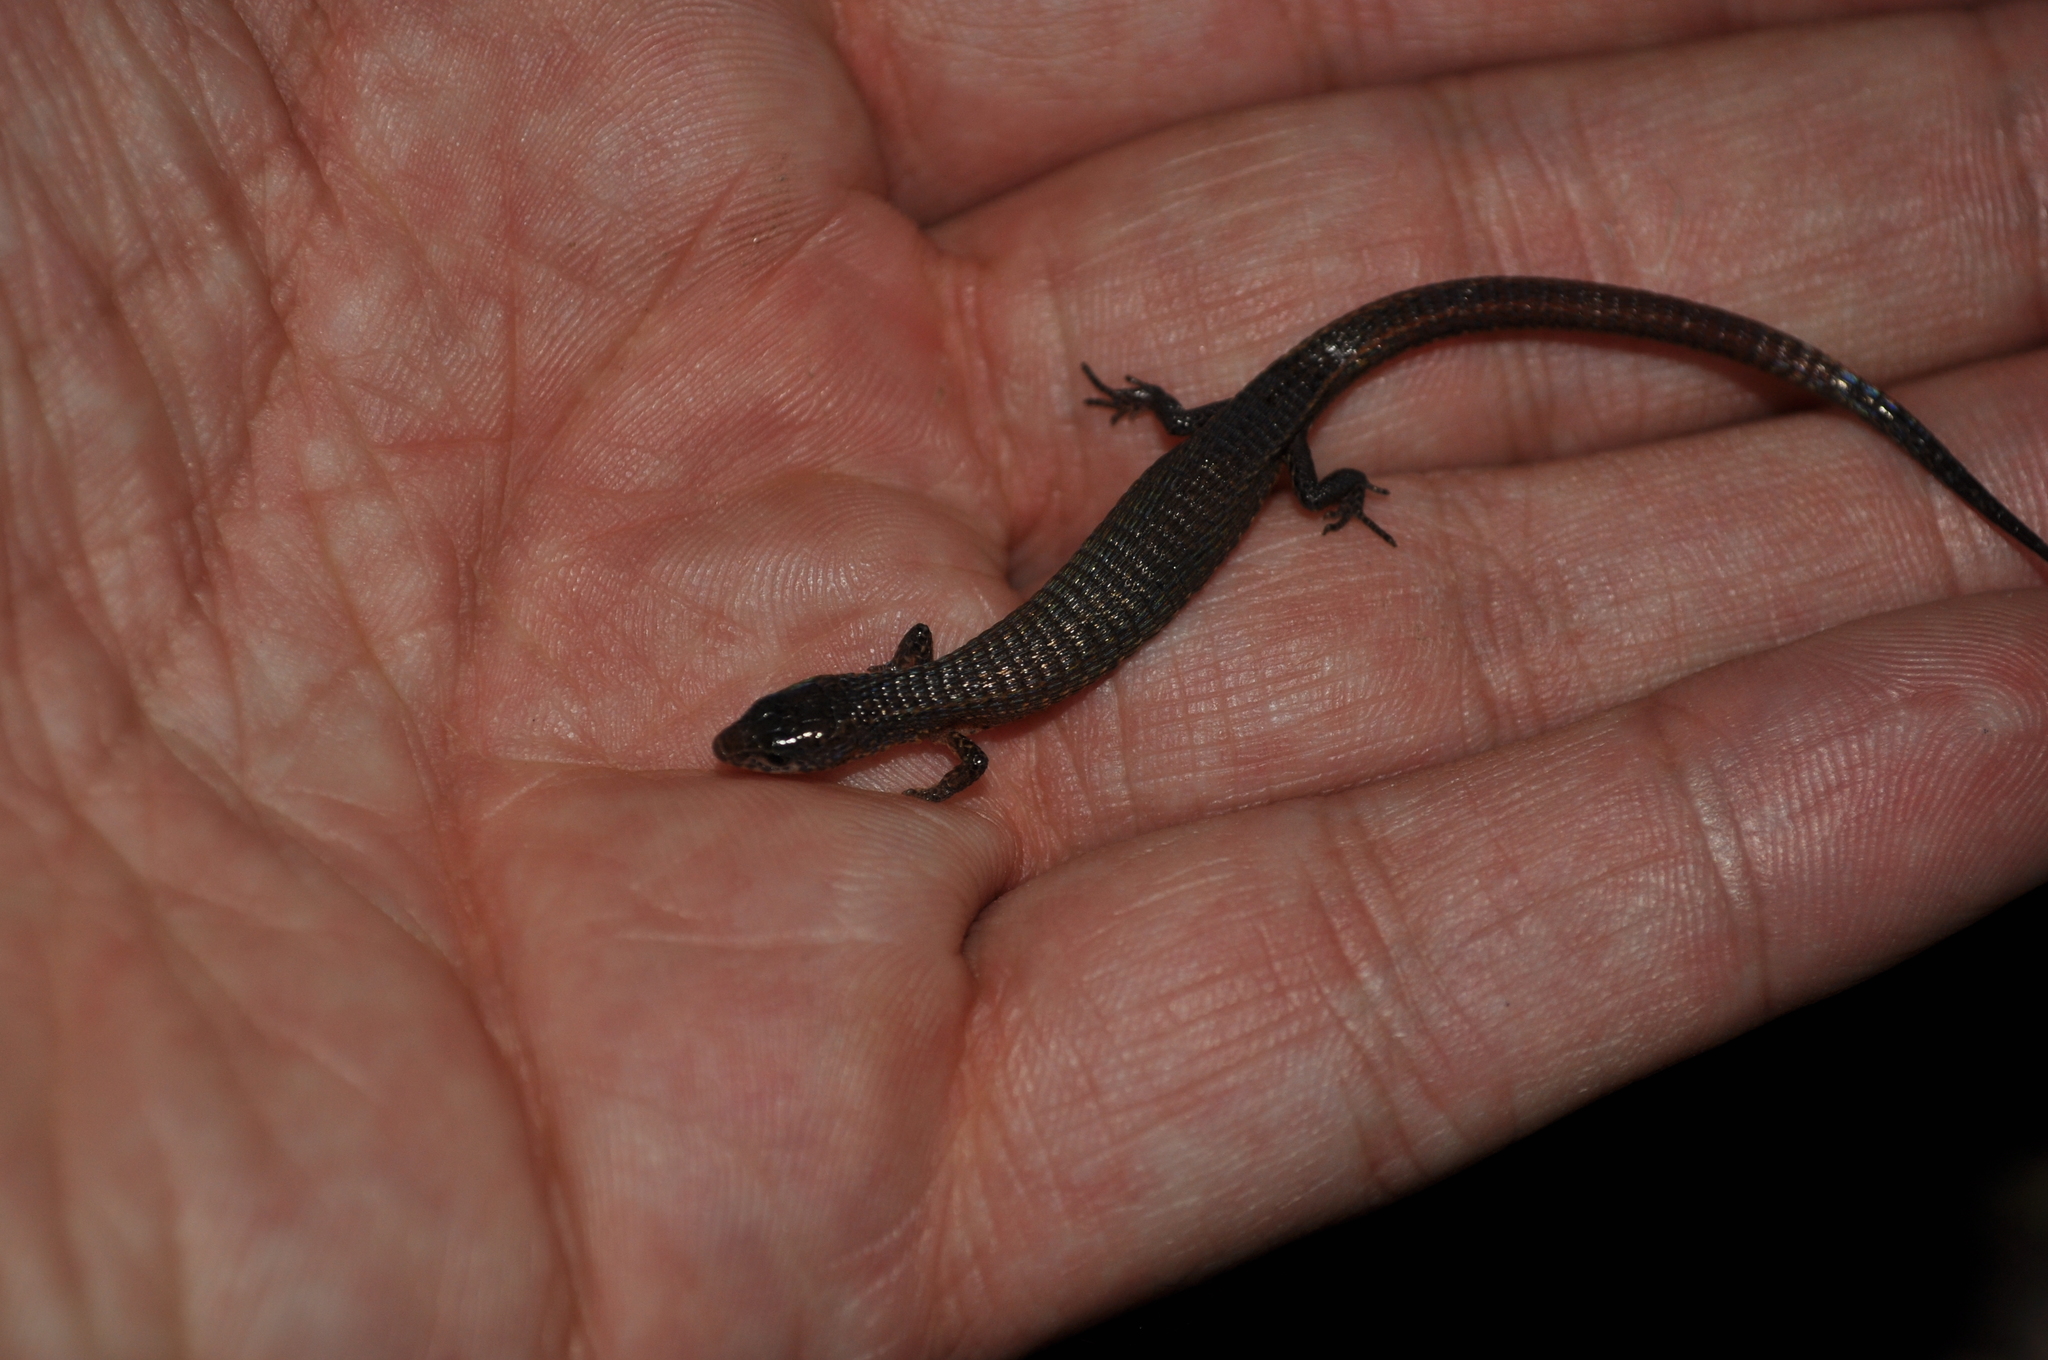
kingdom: Animalia
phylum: Chordata
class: Squamata
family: Gymnophthalmidae
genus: Ecpleopus
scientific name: Ecpleopus gaudichaudii
